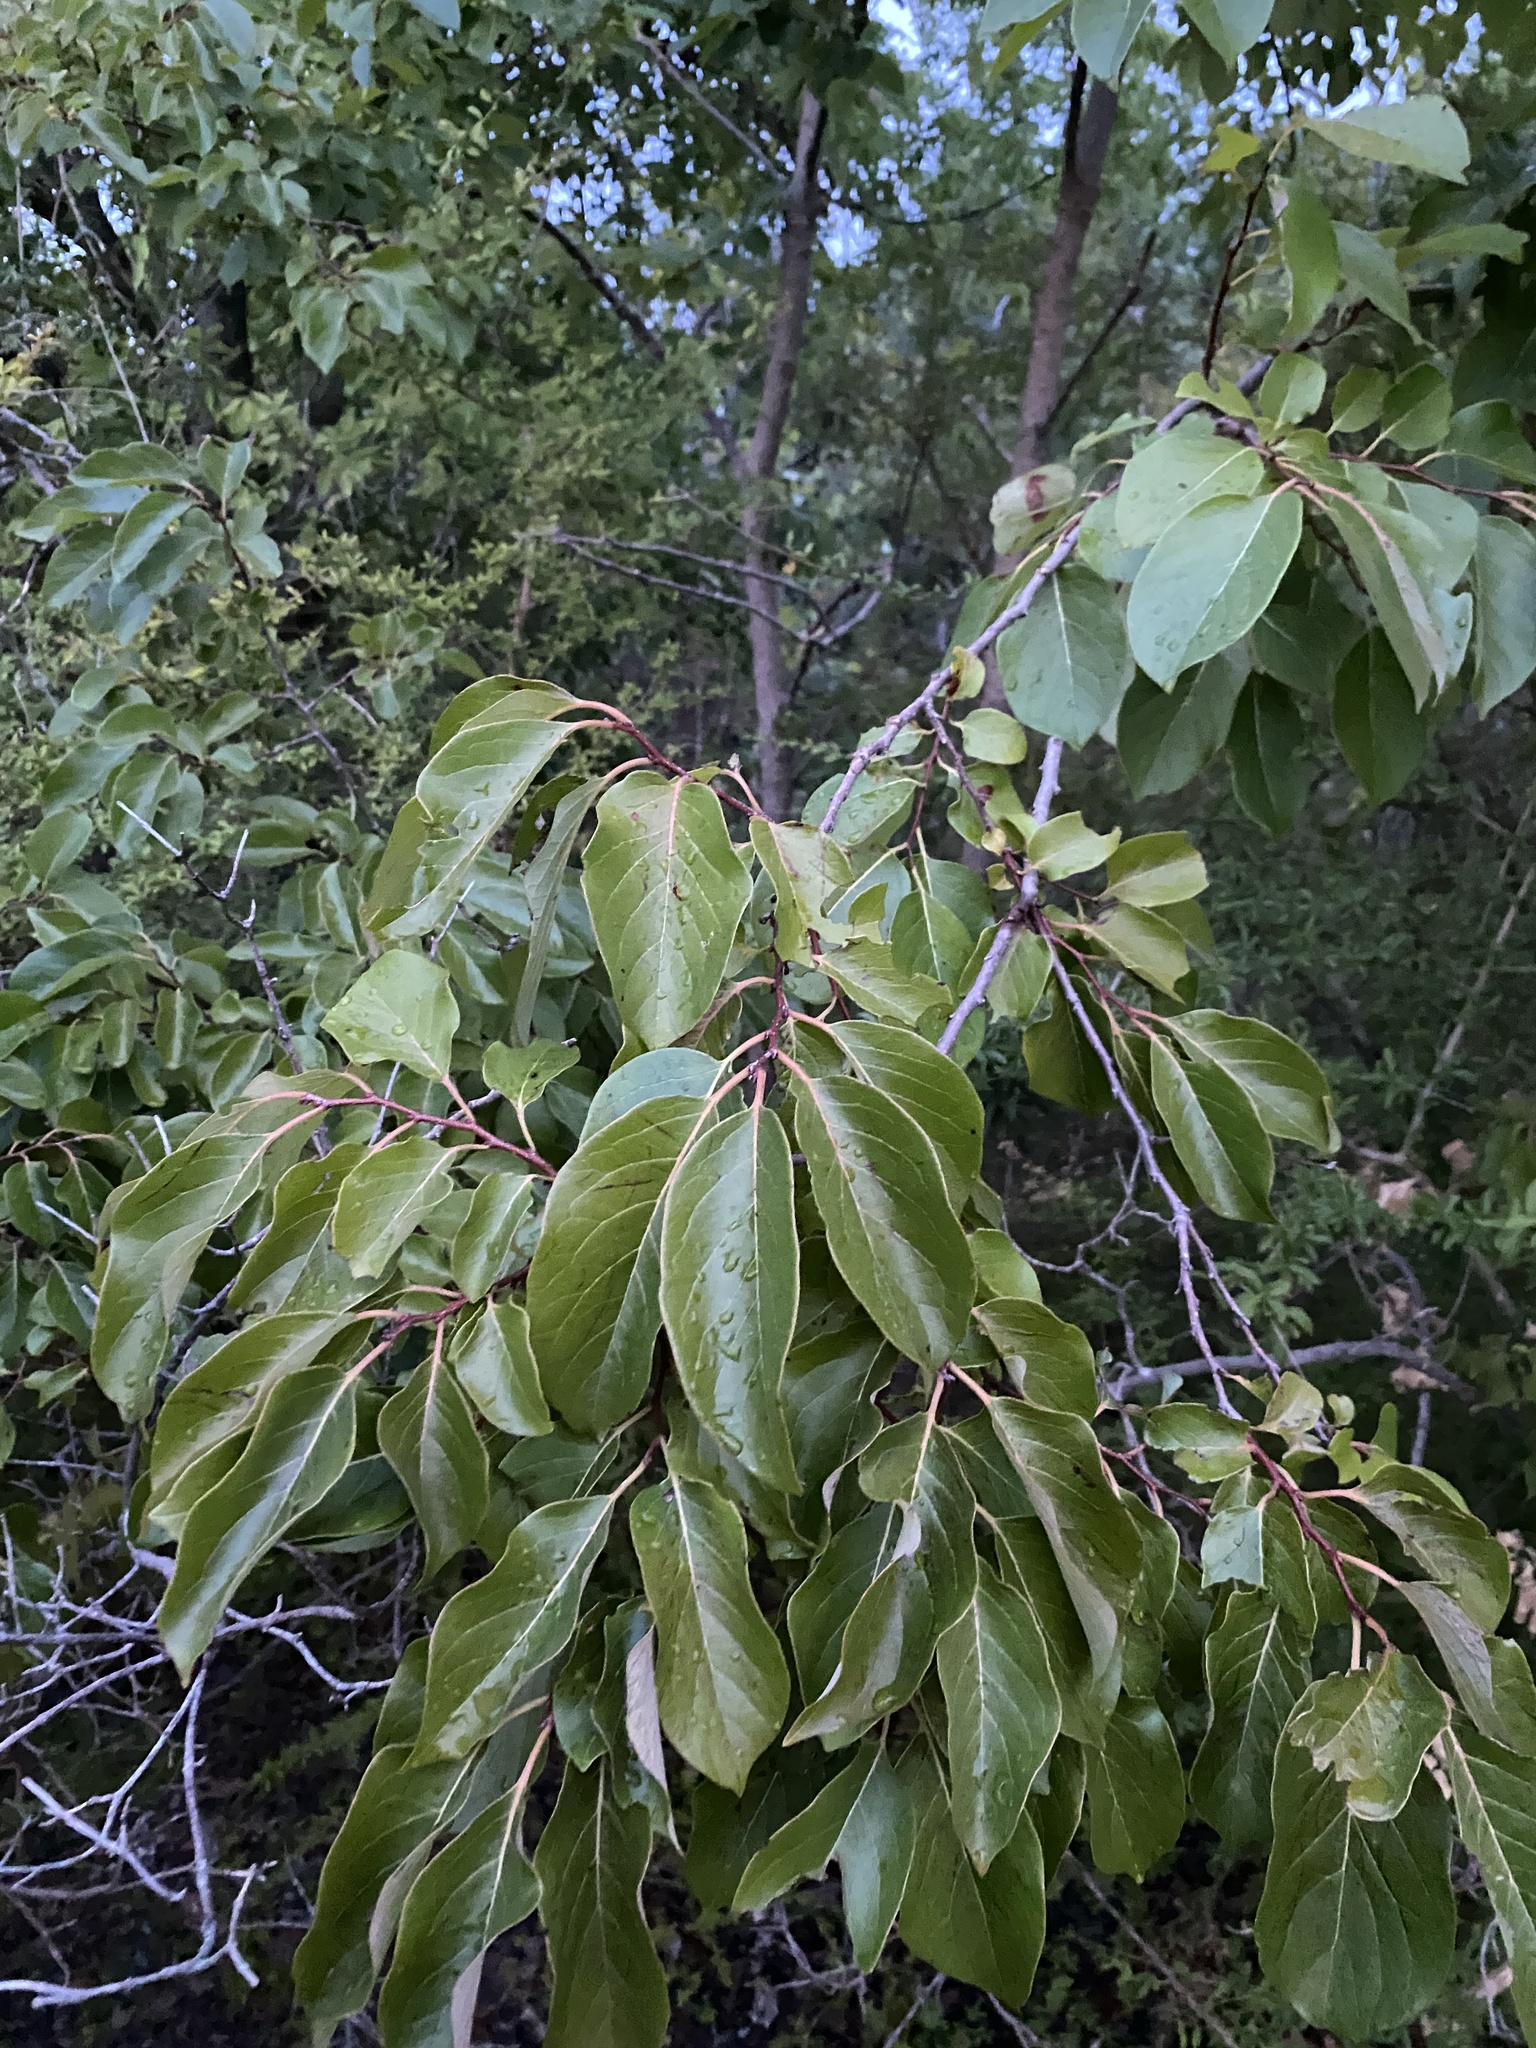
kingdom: Plantae
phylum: Tracheophyta
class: Magnoliopsida
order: Ericales
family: Ebenaceae
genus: Diospyros
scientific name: Diospyros virginiana
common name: Persimmon
